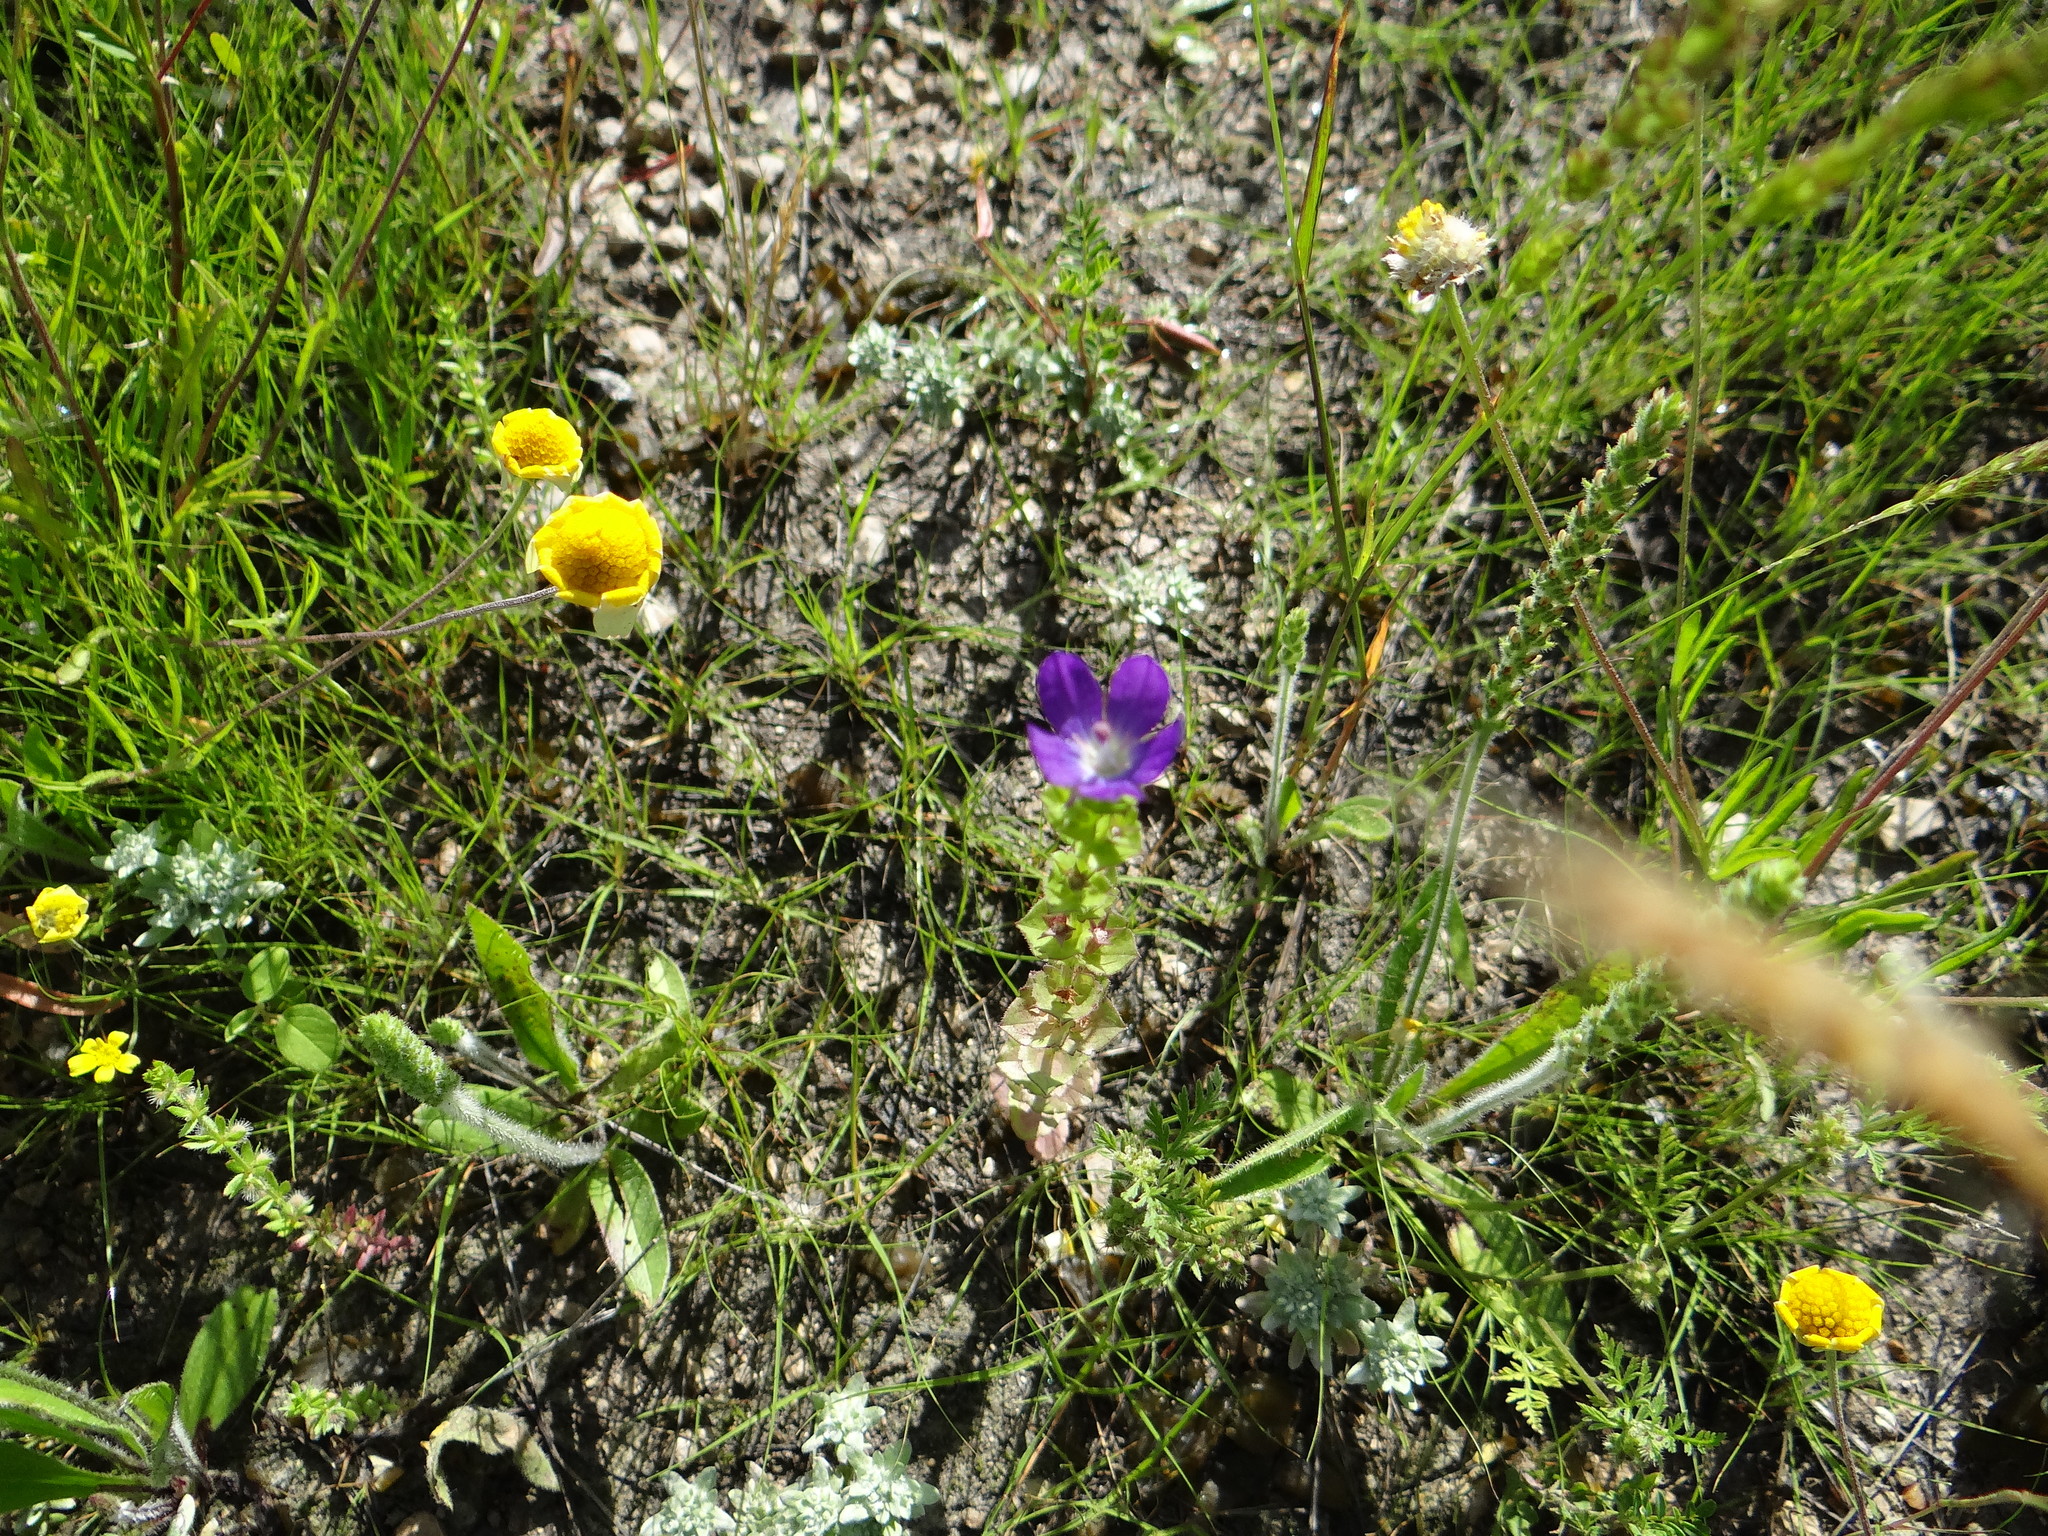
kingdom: Plantae
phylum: Tracheophyta
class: Magnoliopsida
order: Asterales
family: Campanulaceae
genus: Triodanis
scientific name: Triodanis perfoliata
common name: Clasping venus' looking-glass
